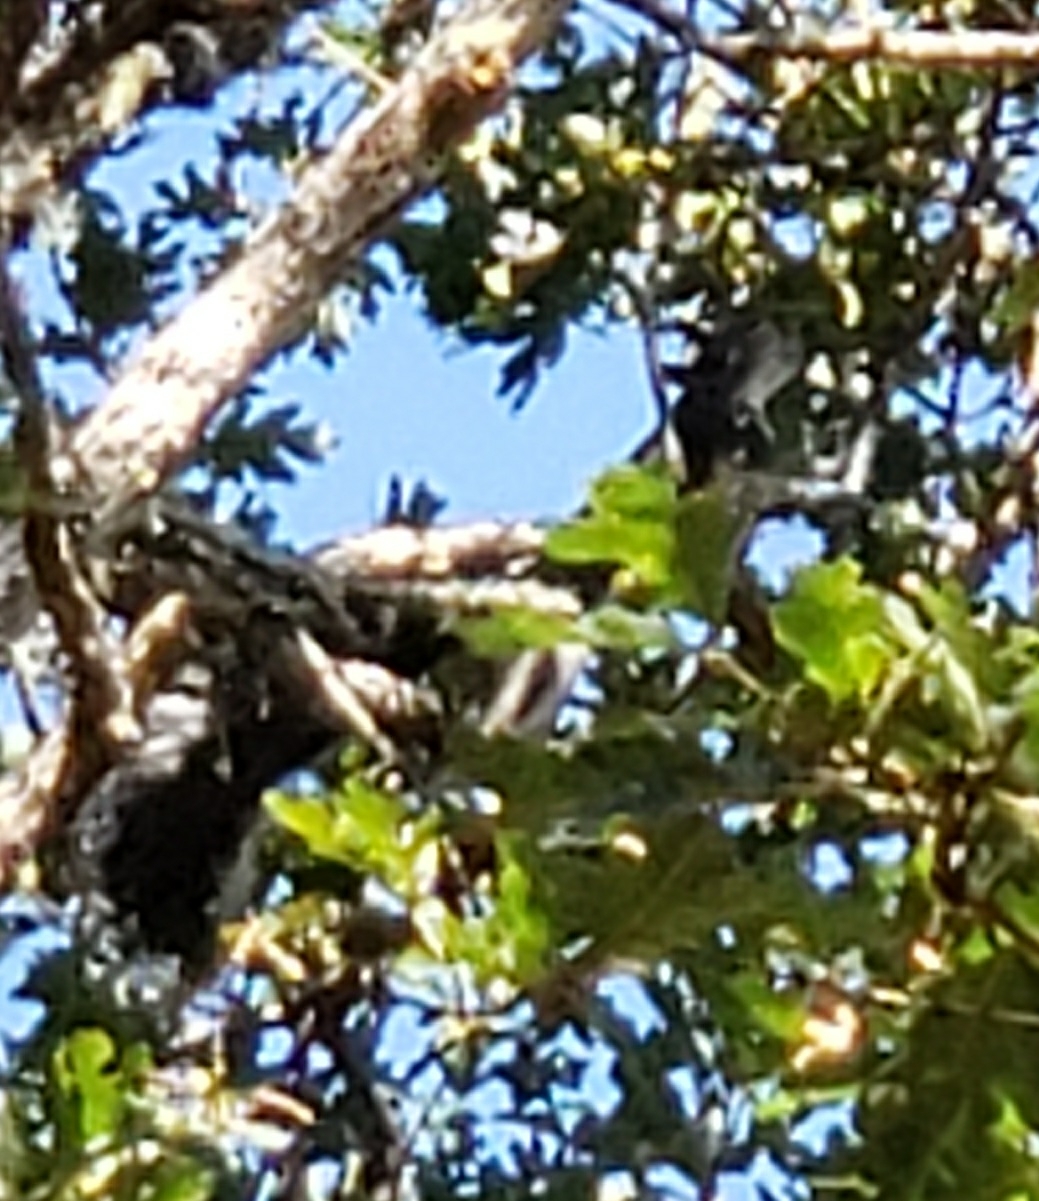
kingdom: Animalia
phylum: Chordata
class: Mammalia
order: Rodentia
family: Sciuridae
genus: Sciurus
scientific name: Sciurus griseus
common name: Western gray squirrel
